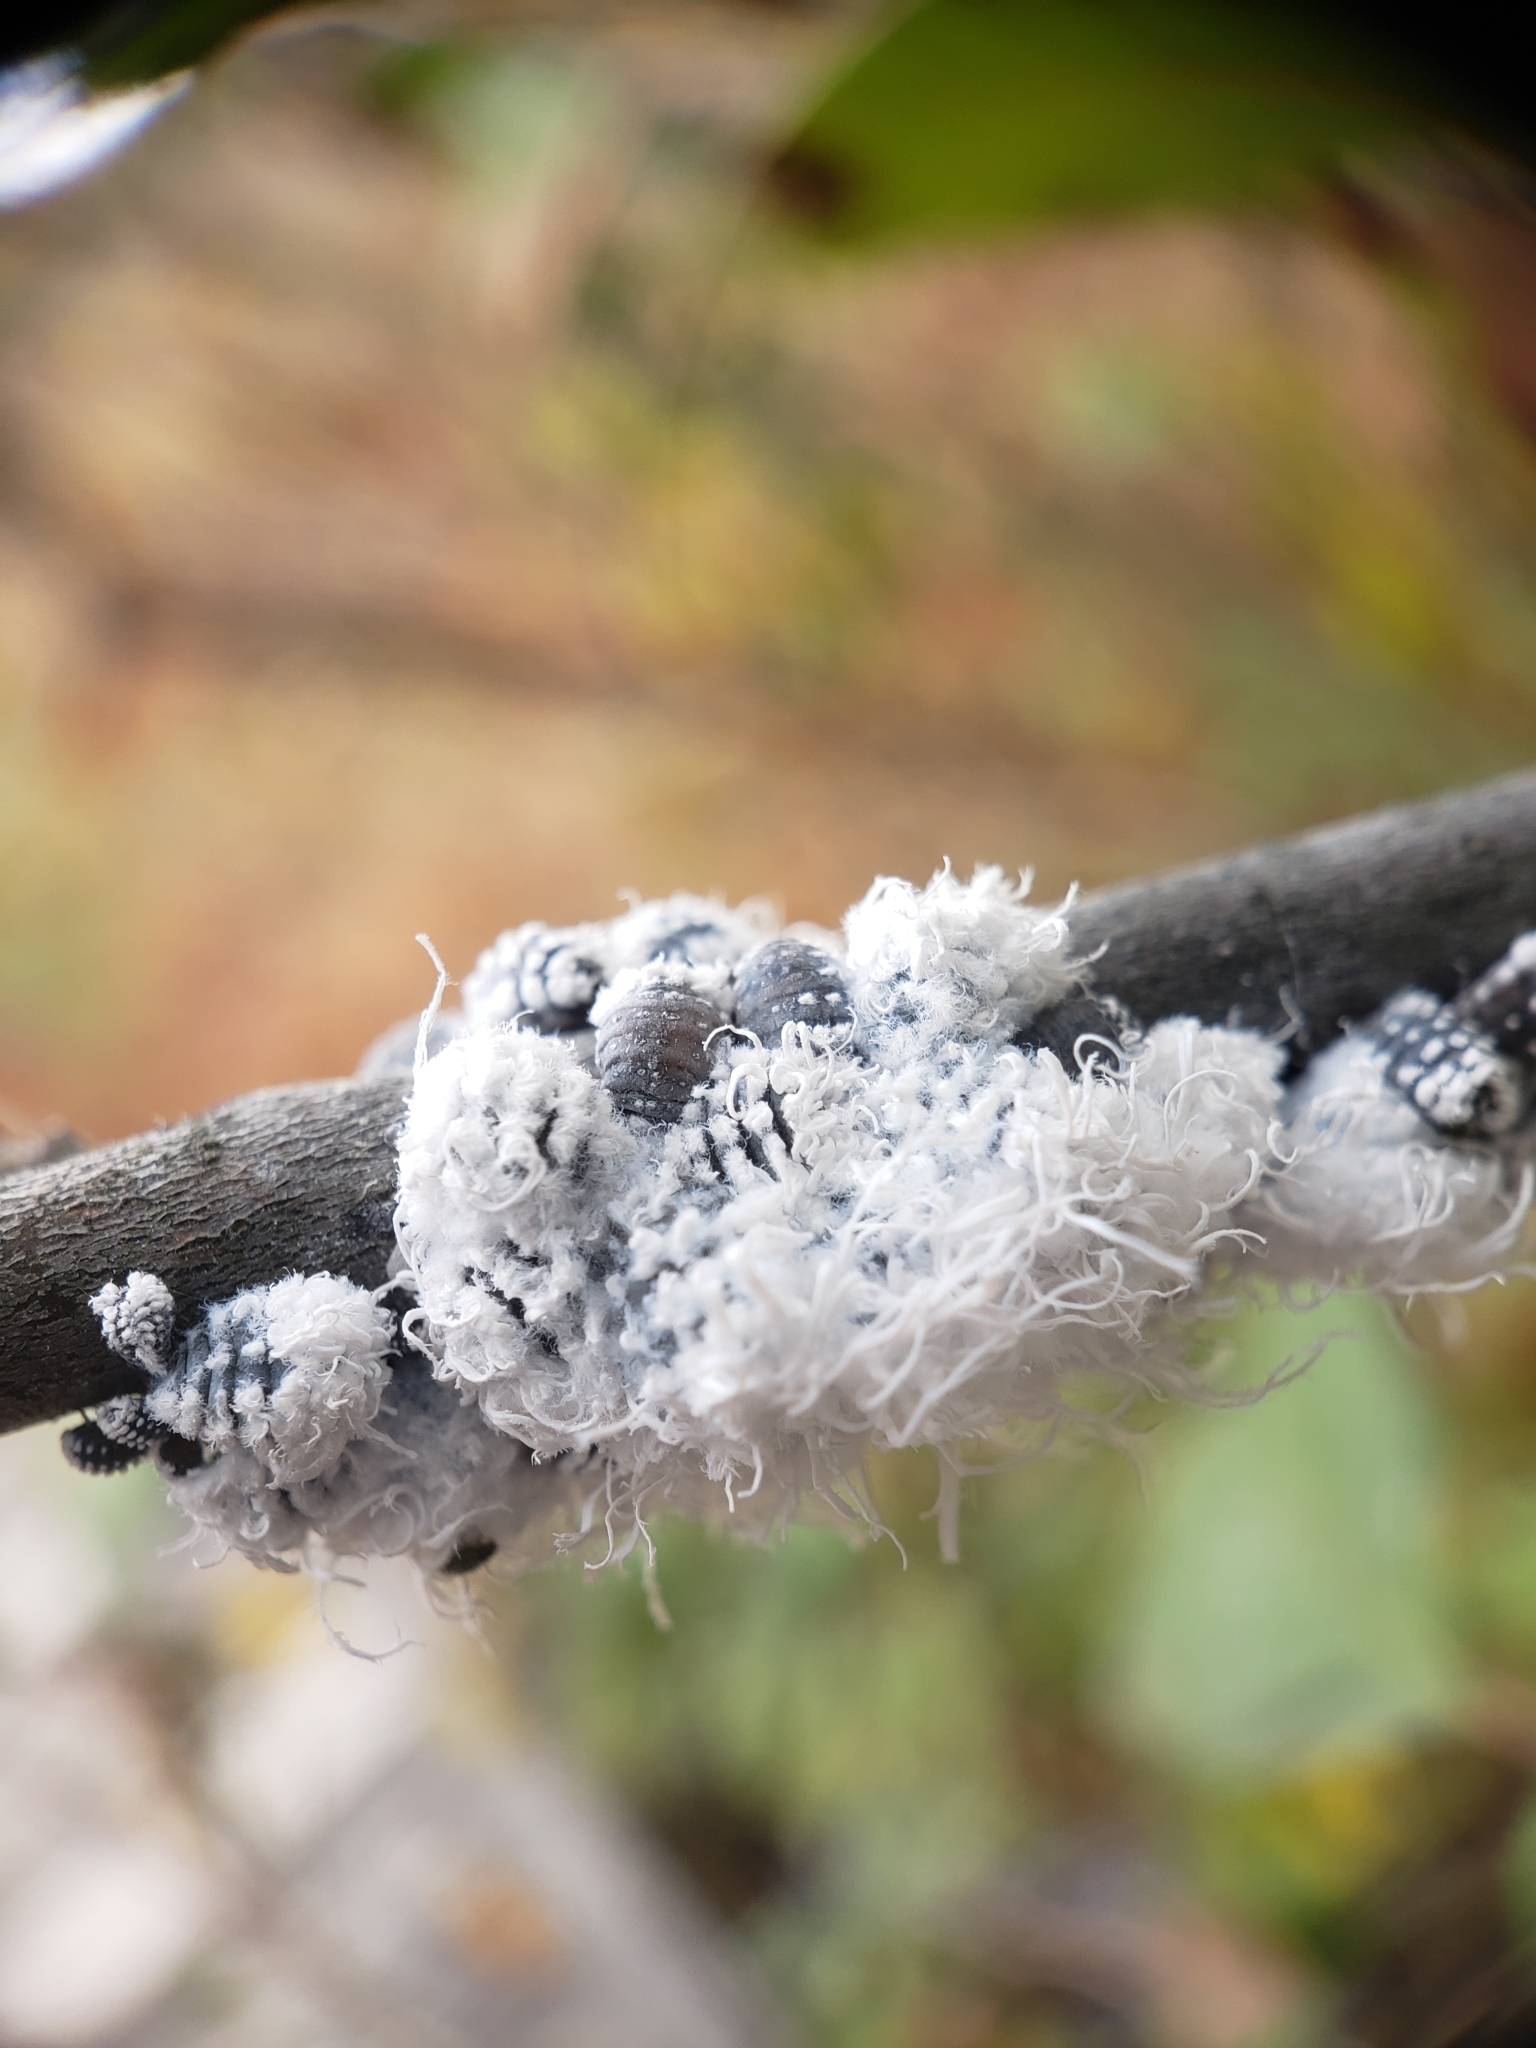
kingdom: Animalia
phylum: Arthropoda
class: Insecta
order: Hemiptera
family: Aphididae
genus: Prociphilus
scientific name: Prociphilus tessellatus
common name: Woolly alder aphid
